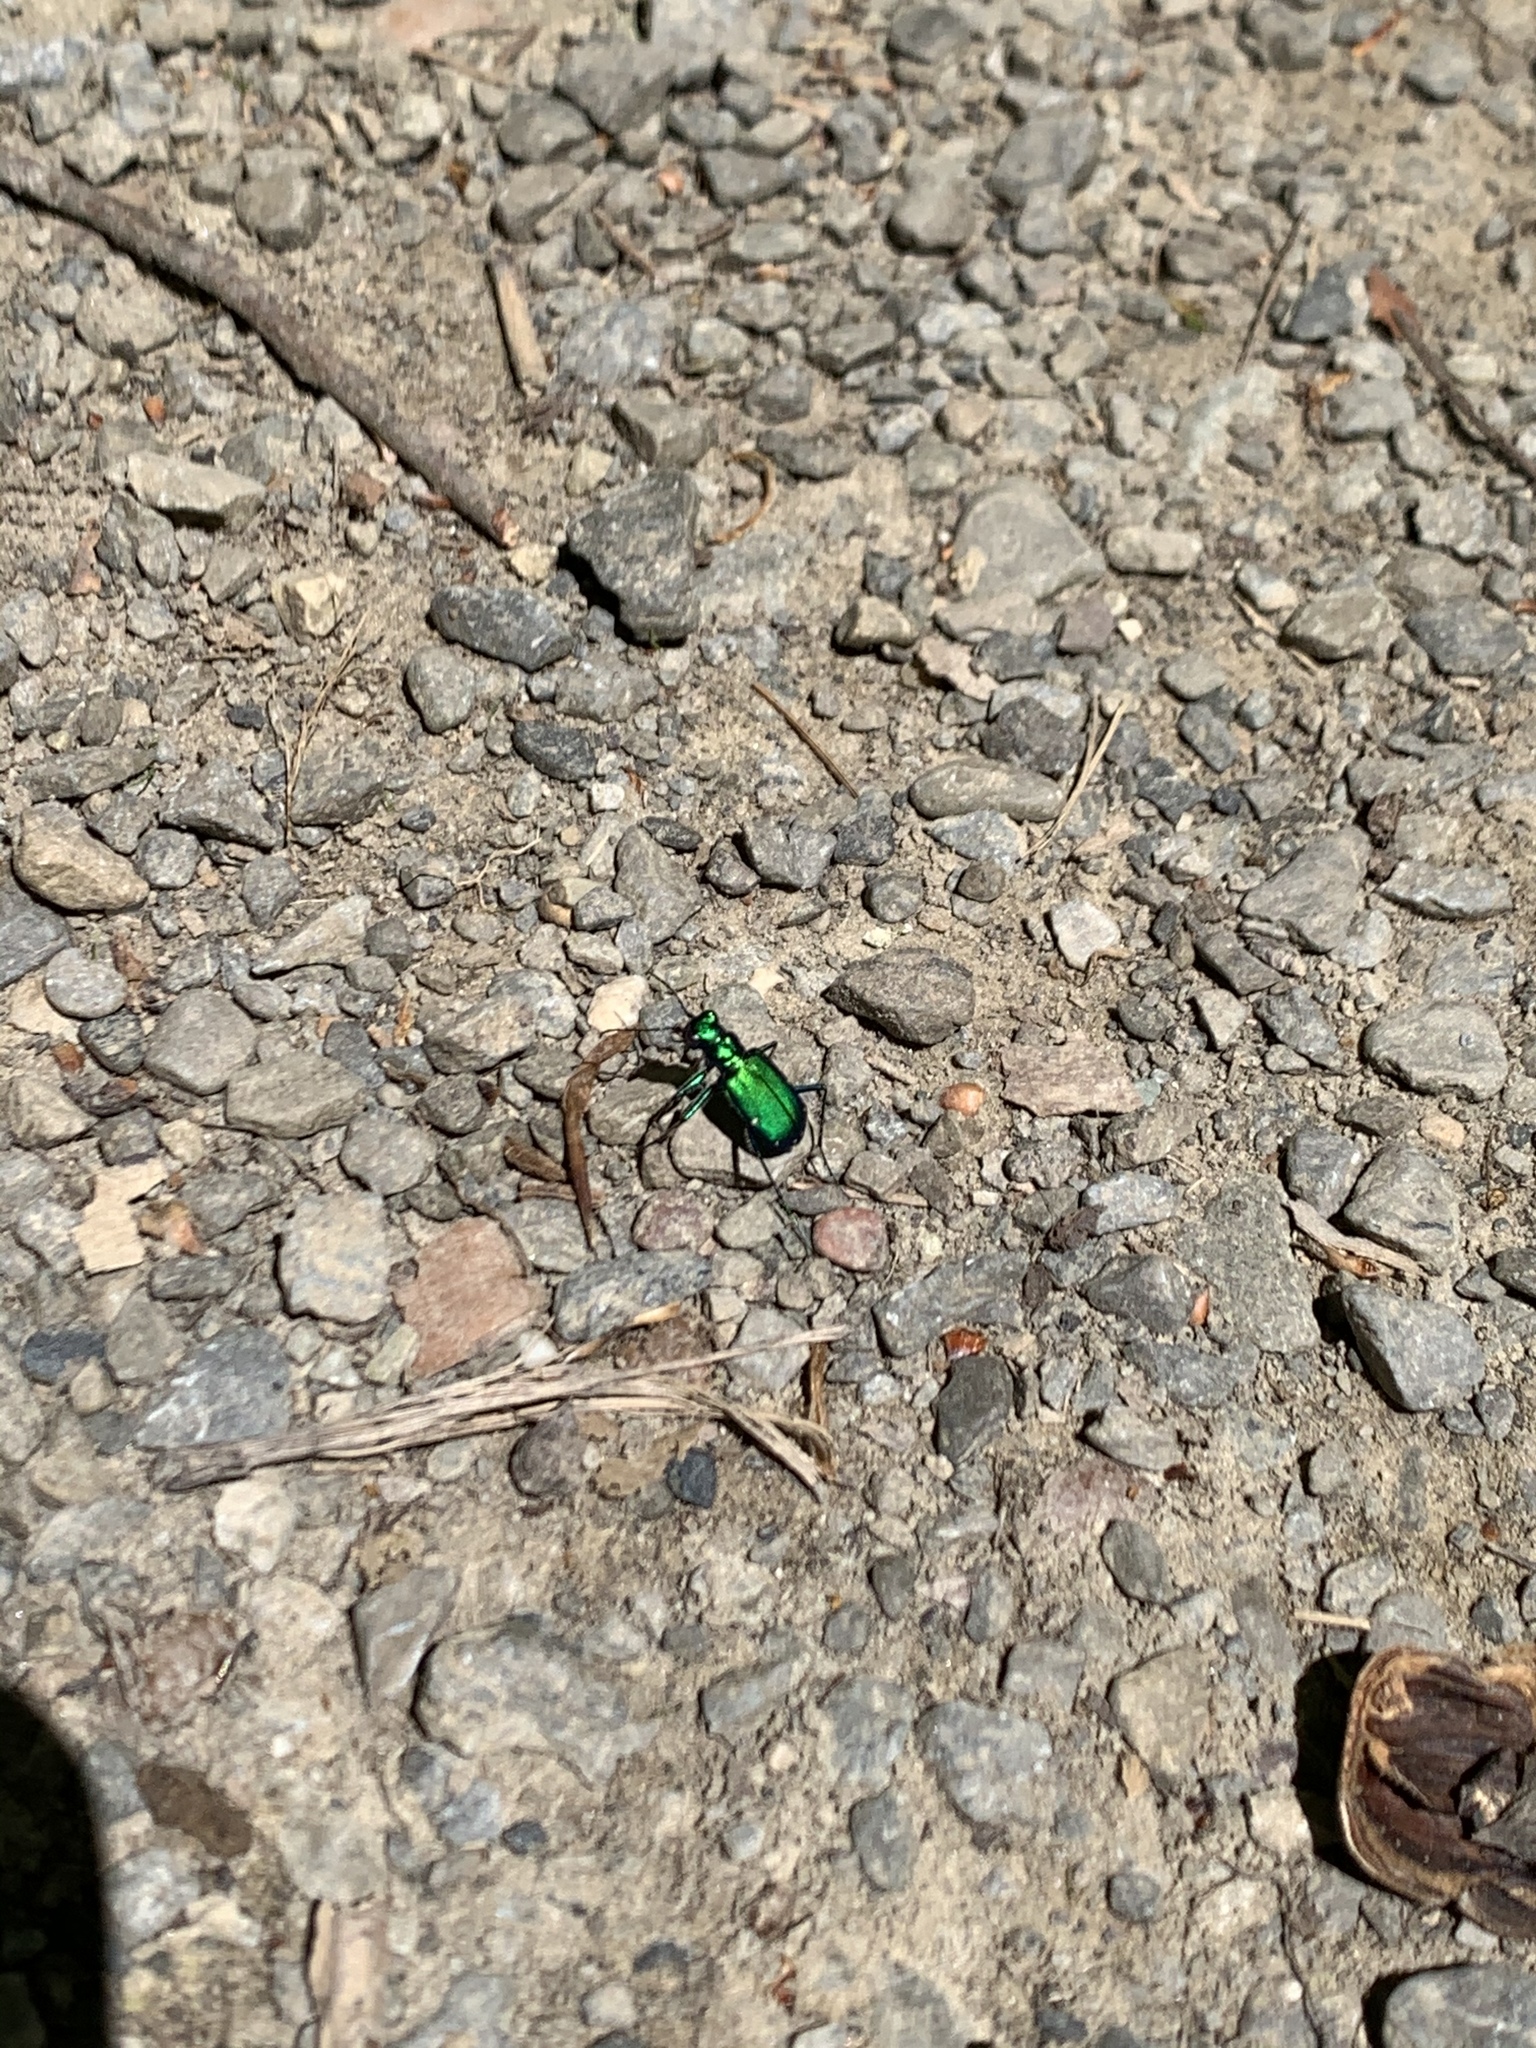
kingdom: Animalia
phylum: Arthropoda
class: Insecta
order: Coleoptera
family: Carabidae
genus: Cicindela
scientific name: Cicindela sexguttata
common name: Six-spotted tiger beetle
